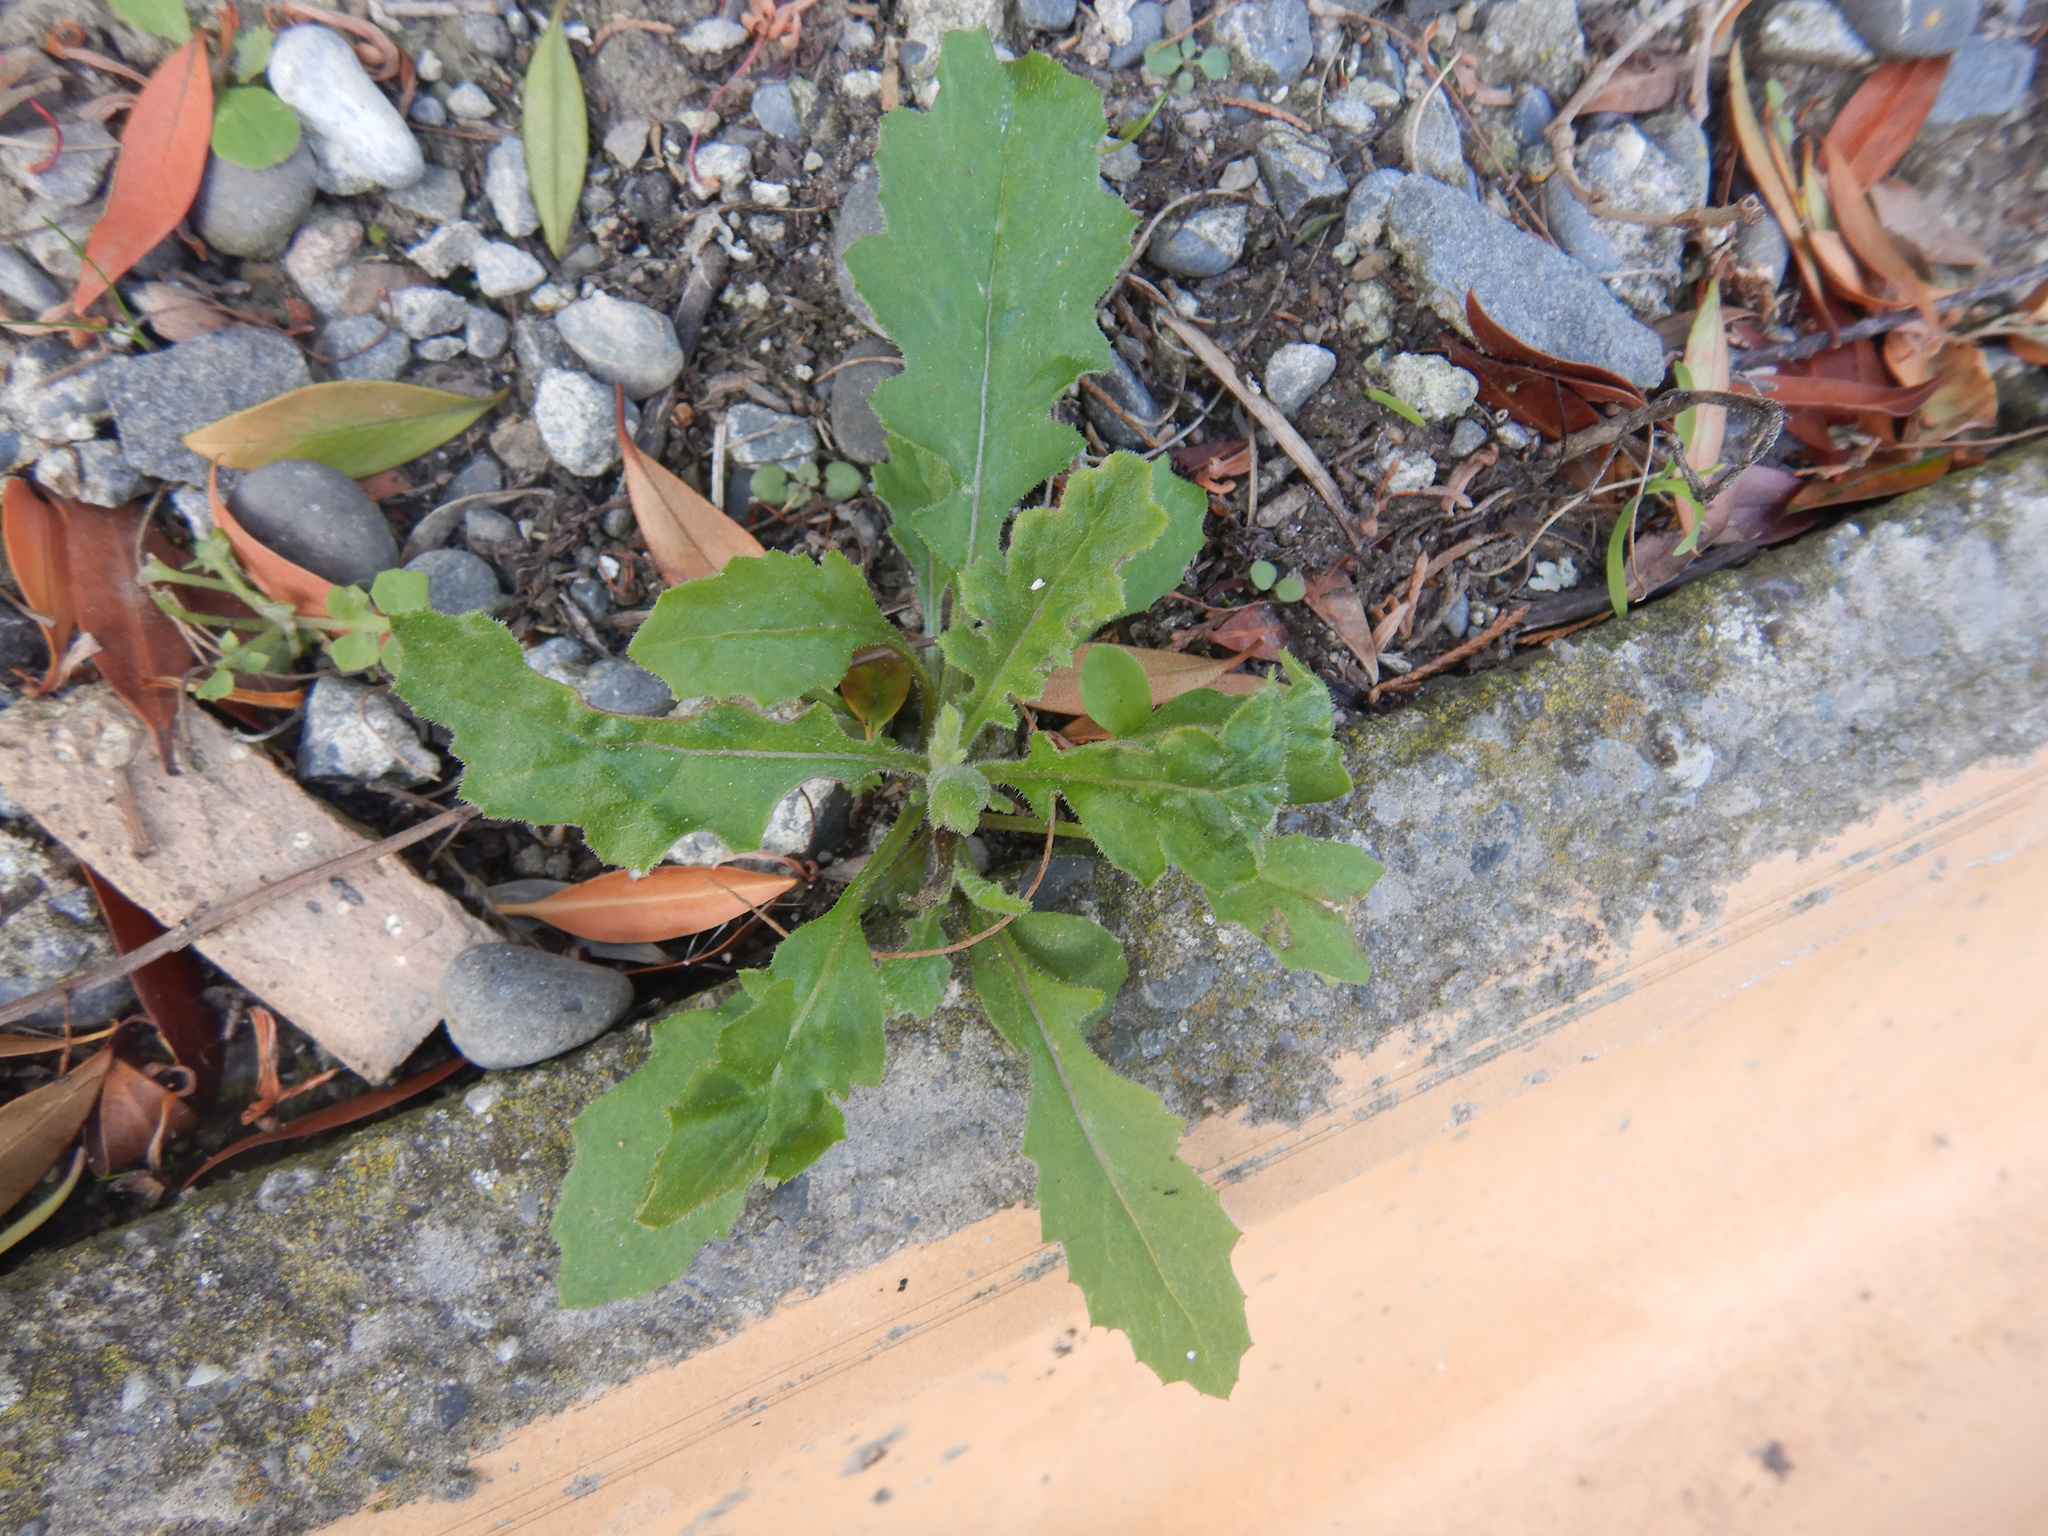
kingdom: Plantae
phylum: Tracheophyta
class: Magnoliopsida
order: Asterales
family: Asteraceae
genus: Senecio
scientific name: Senecio hispidulus
